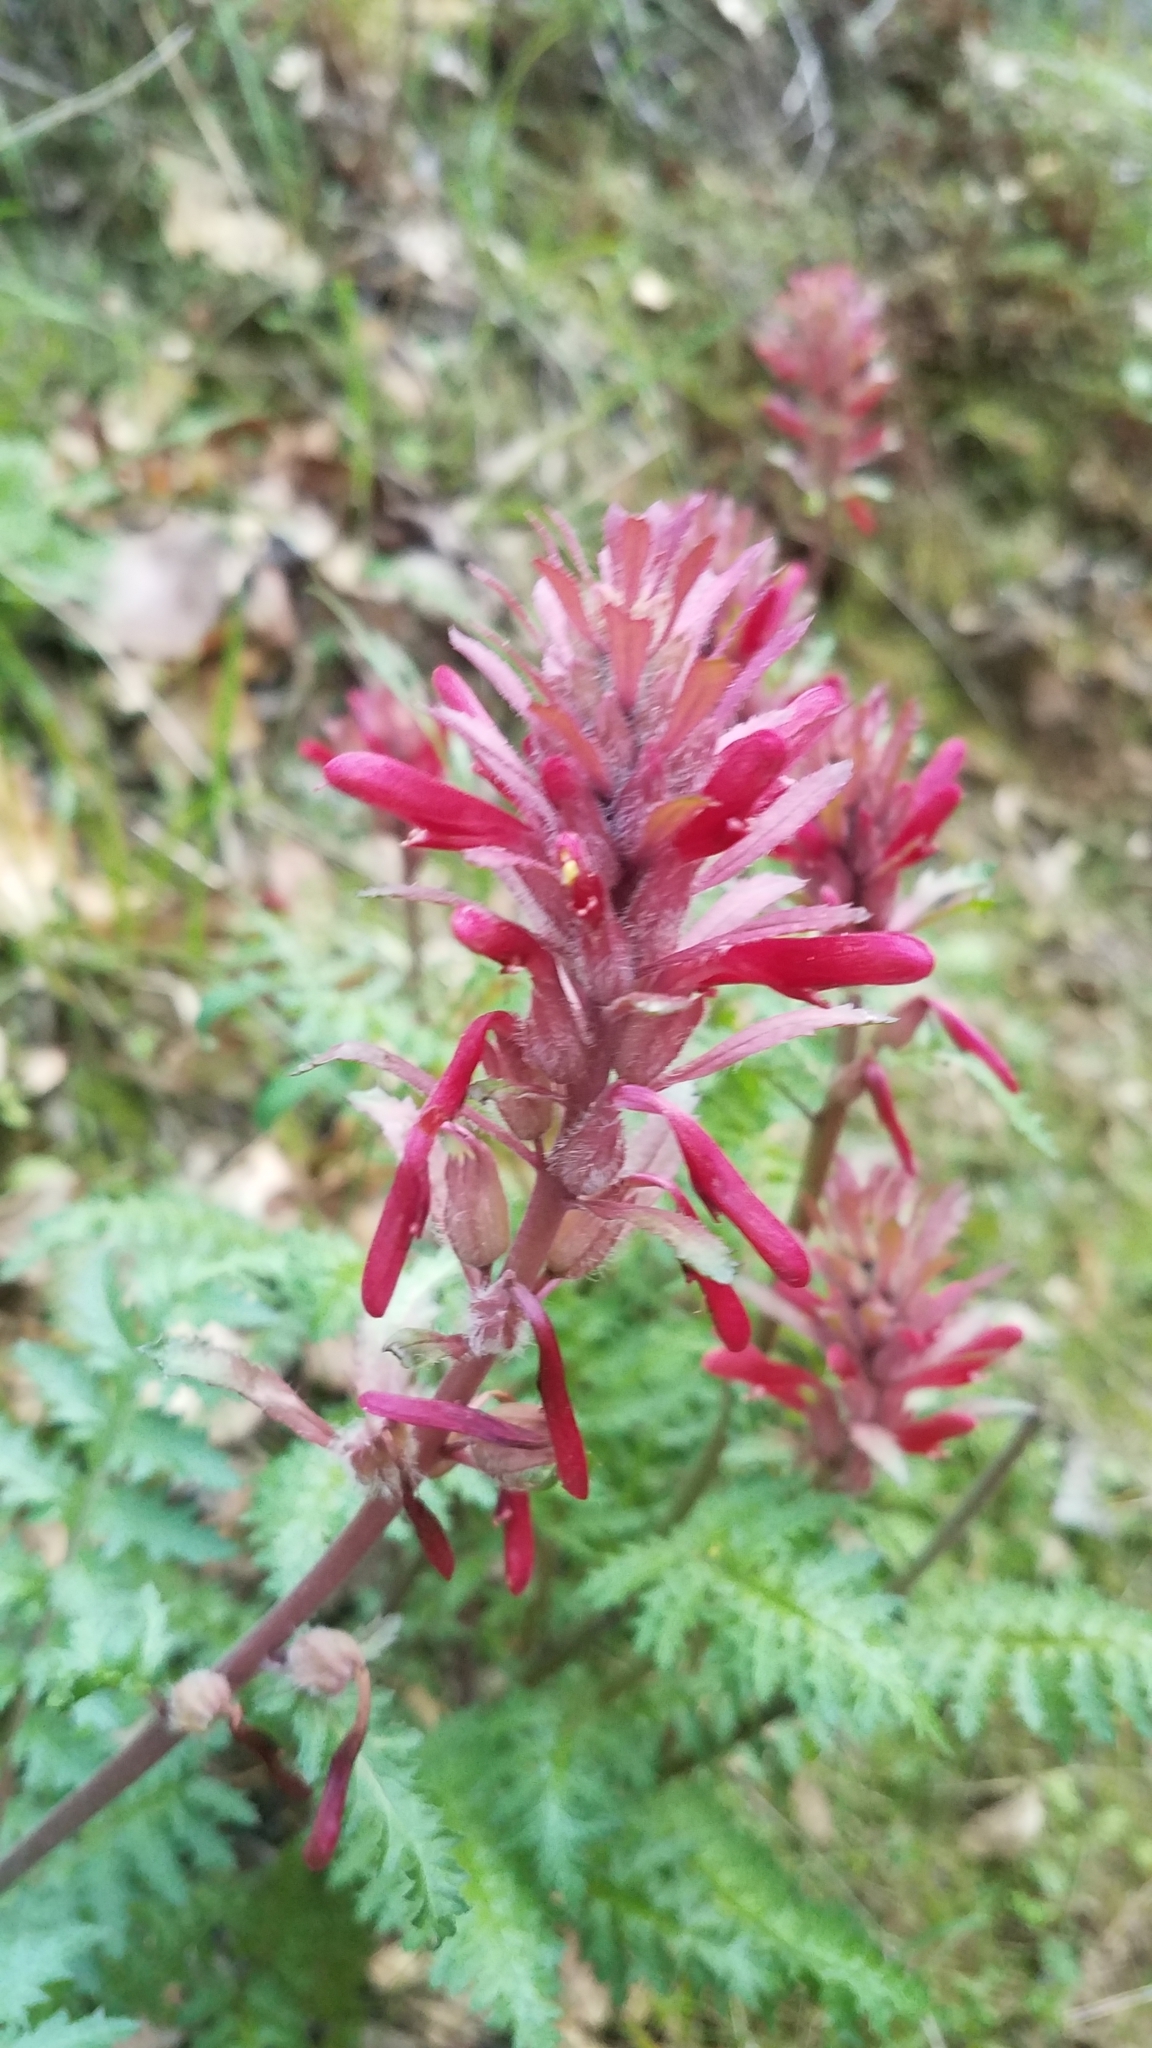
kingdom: Plantae
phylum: Tracheophyta
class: Magnoliopsida
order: Lamiales
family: Orobanchaceae
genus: Pedicularis
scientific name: Pedicularis densiflora
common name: Indian warrior
